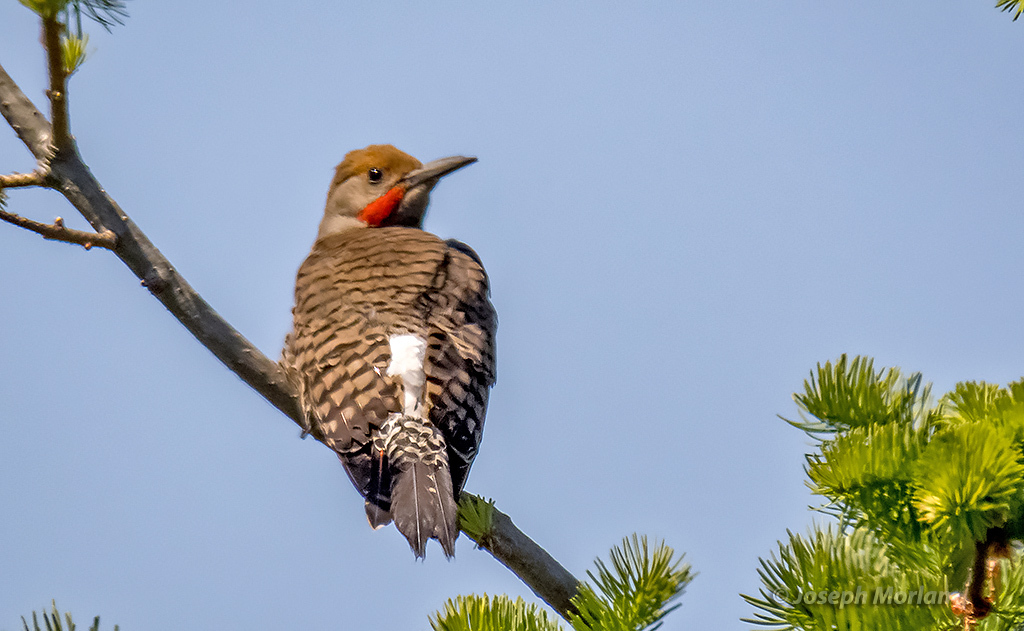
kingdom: Animalia
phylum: Chordata
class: Aves
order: Piciformes
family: Picidae
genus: Colaptes
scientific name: Colaptes auratus
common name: Northern flicker
